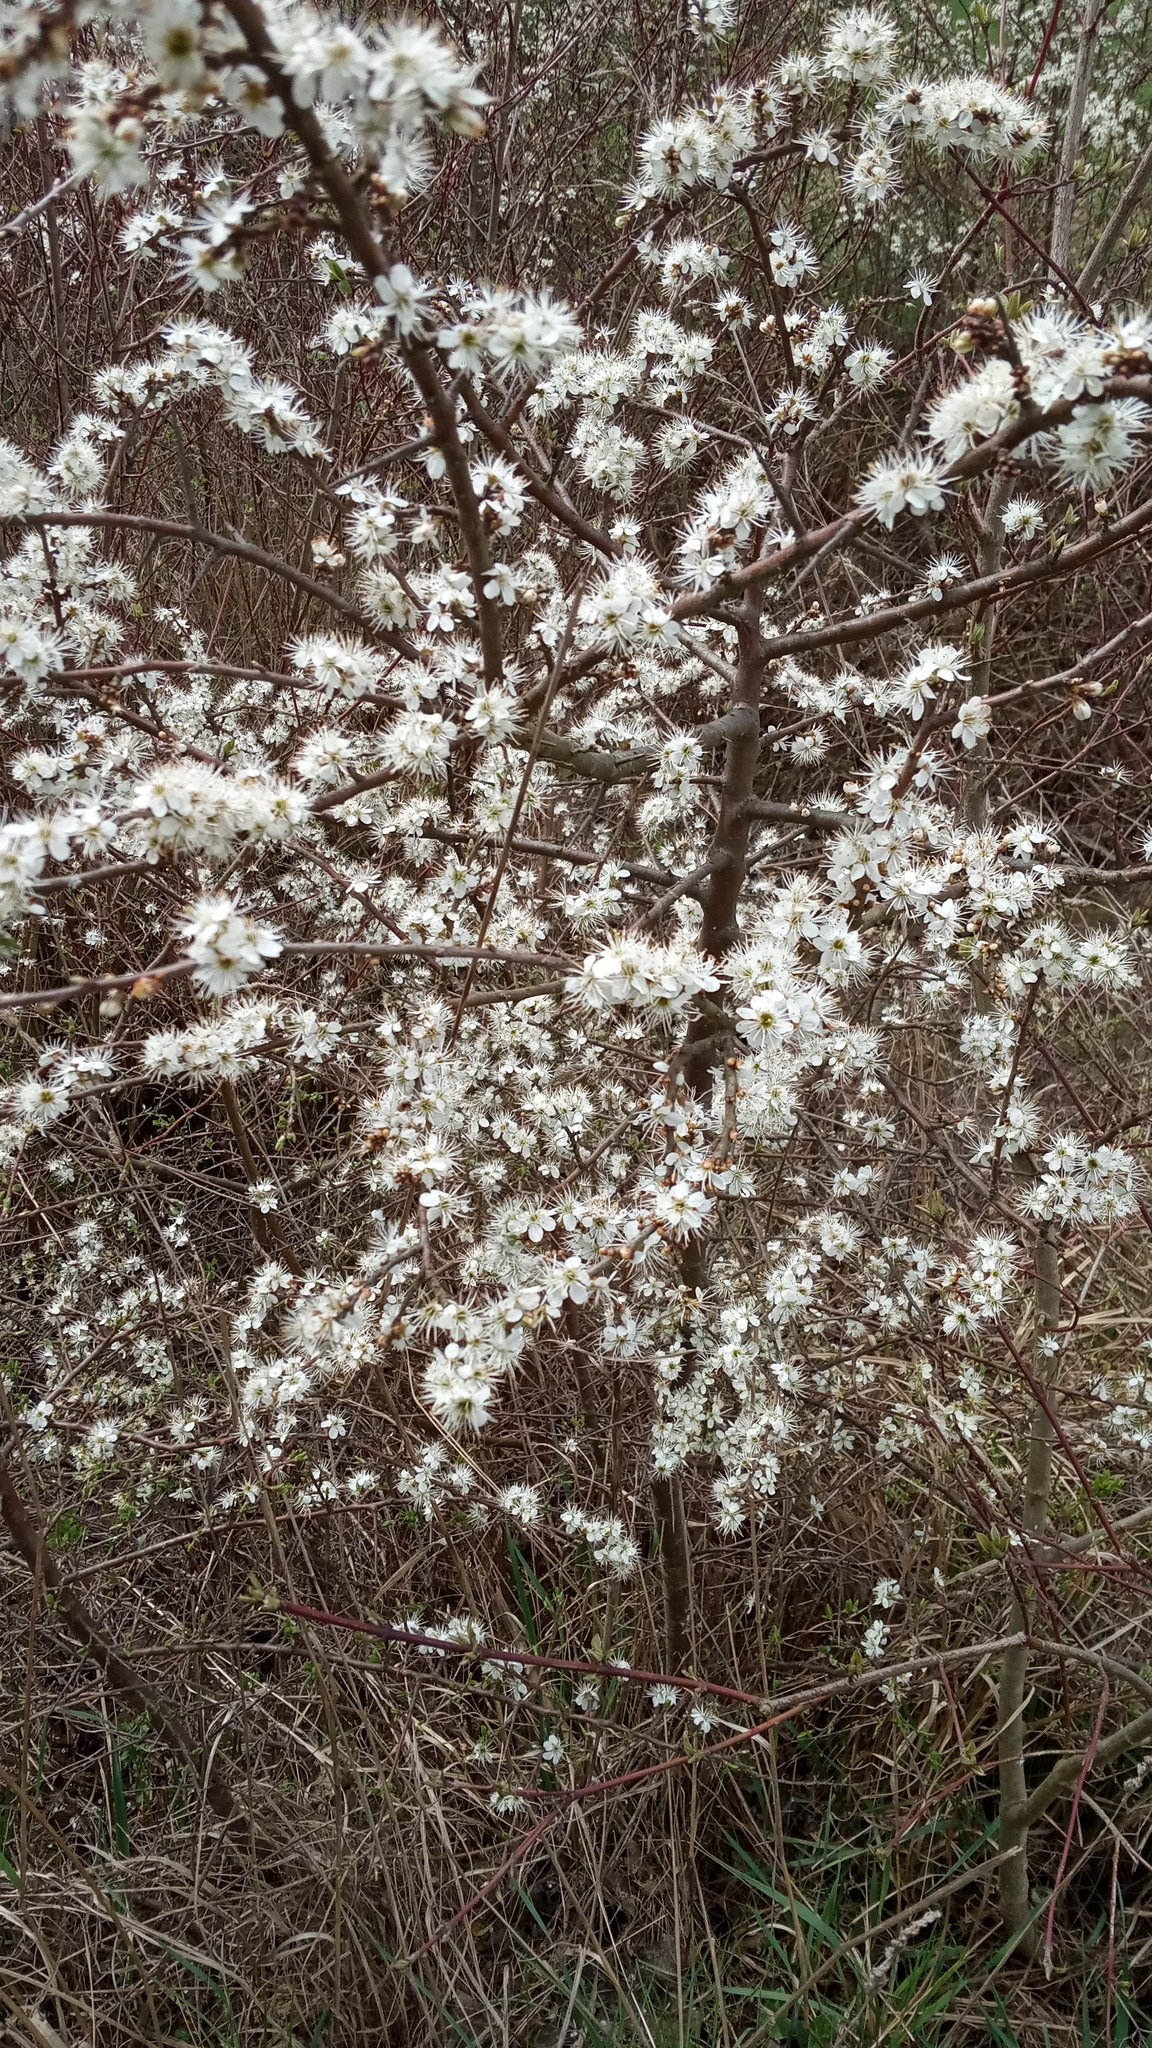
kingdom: Plantae
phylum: Tracheophyta
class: Magnoliopsida
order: Rosales
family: Rosaceae
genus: Prunus
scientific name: Prunus spinosa
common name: Blackthorn
